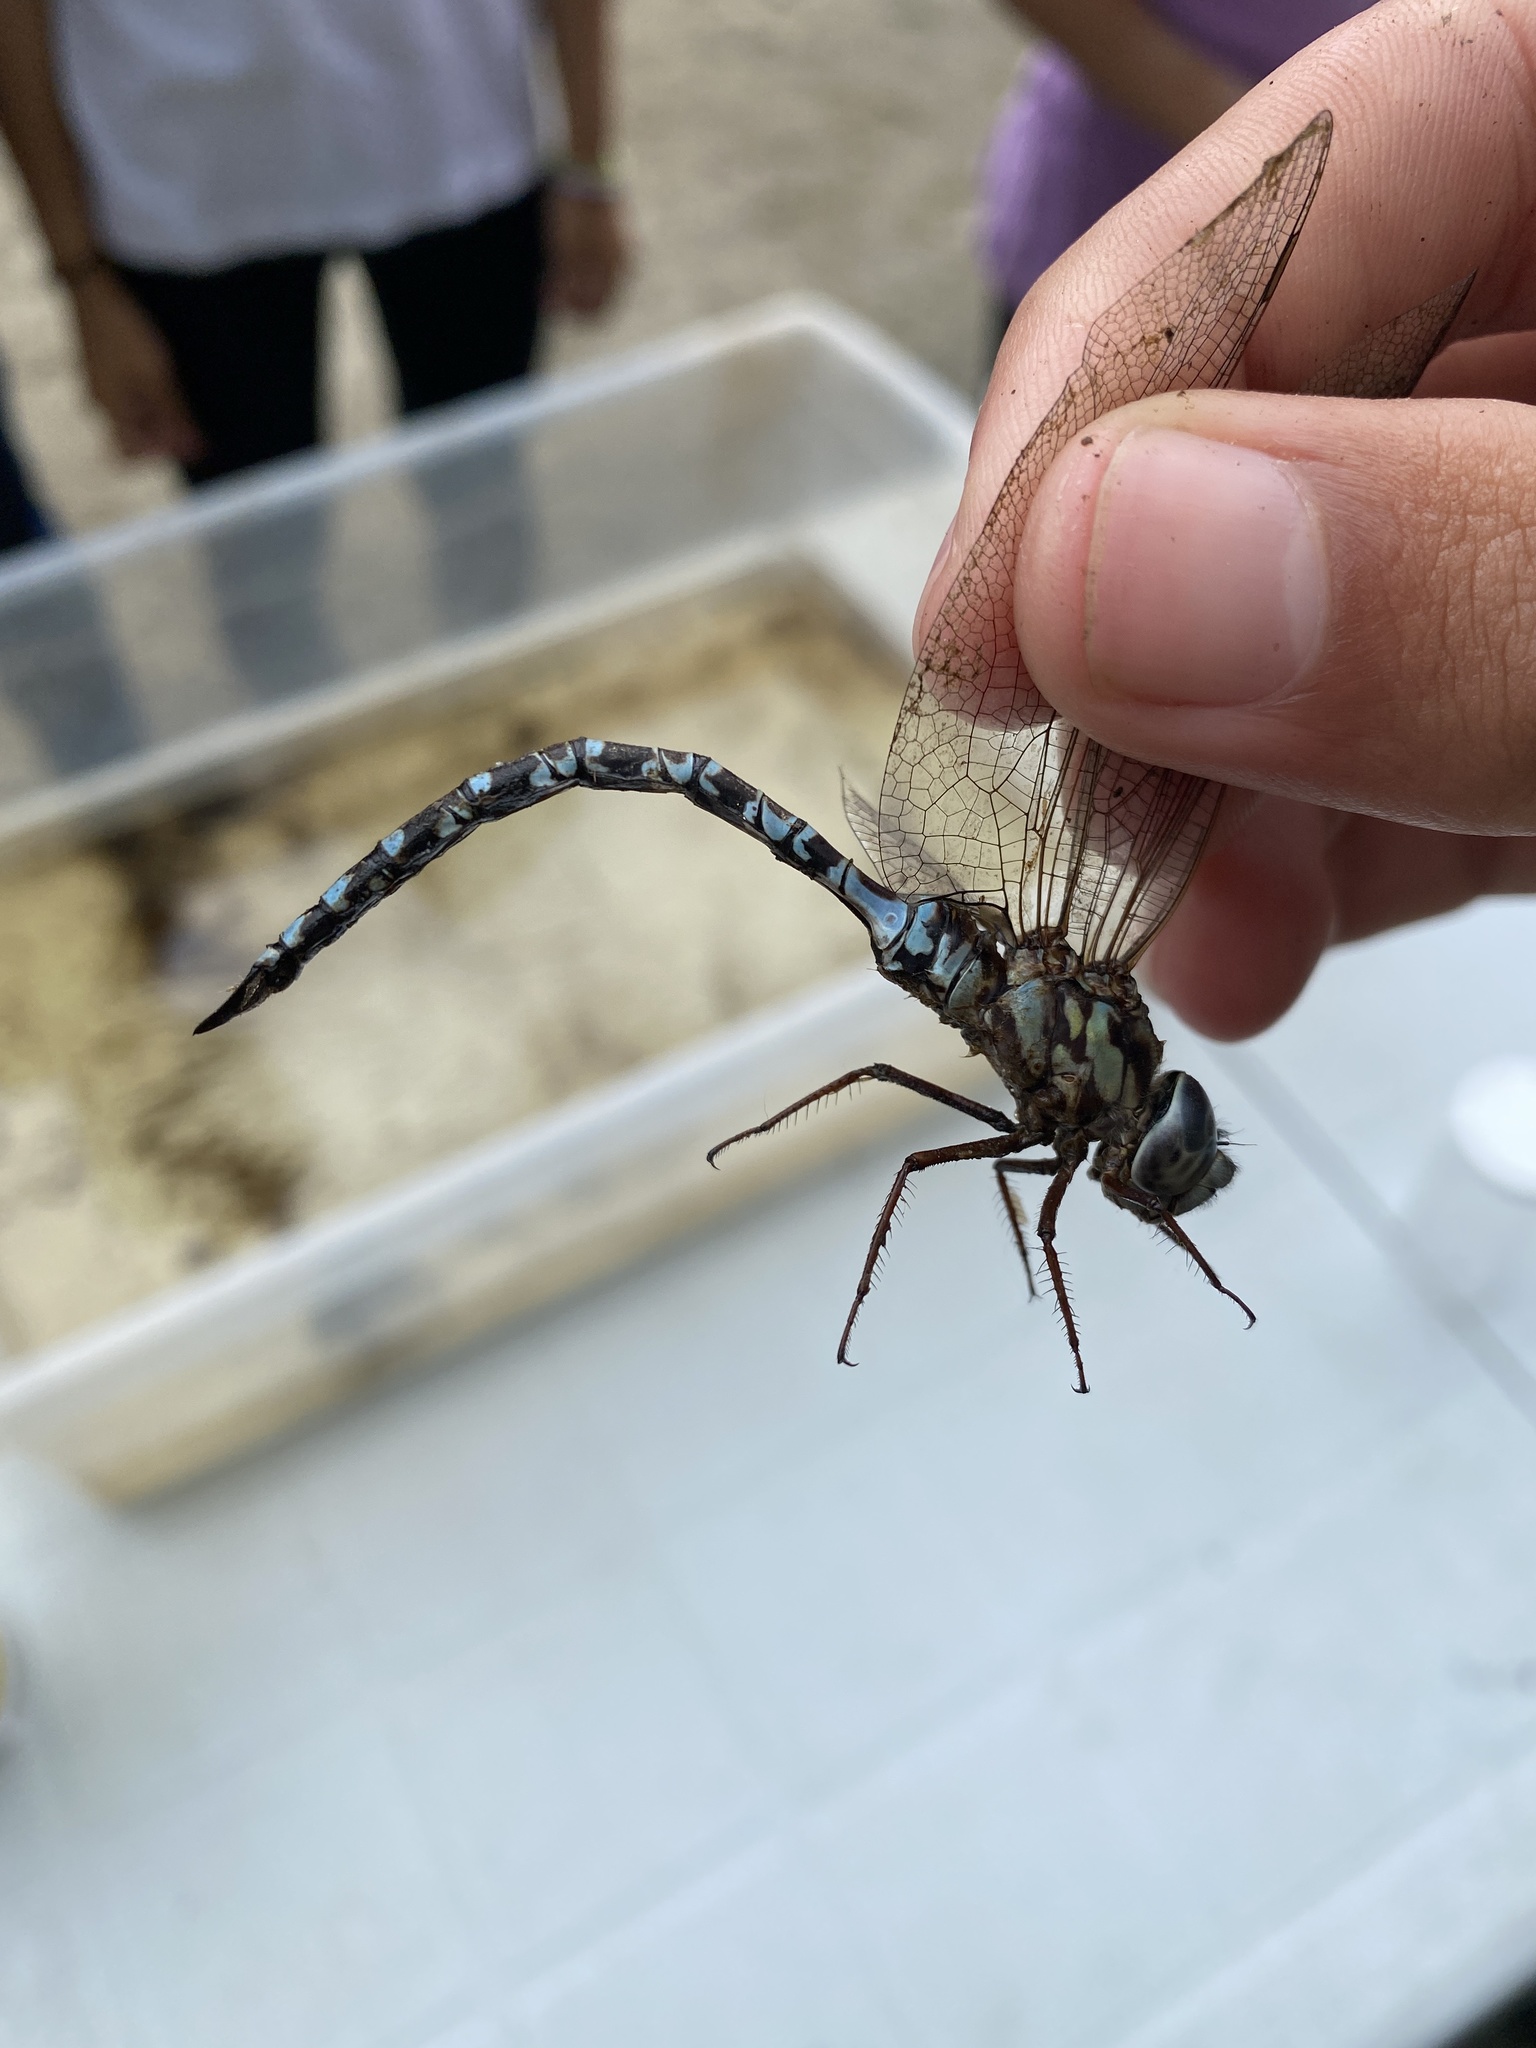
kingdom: Animalia
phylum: Arthropoda
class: Insecta
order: Odonata
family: Aeshnidae
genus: Aeshna
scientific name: Aeshna clepsydra
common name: Mottled darner
